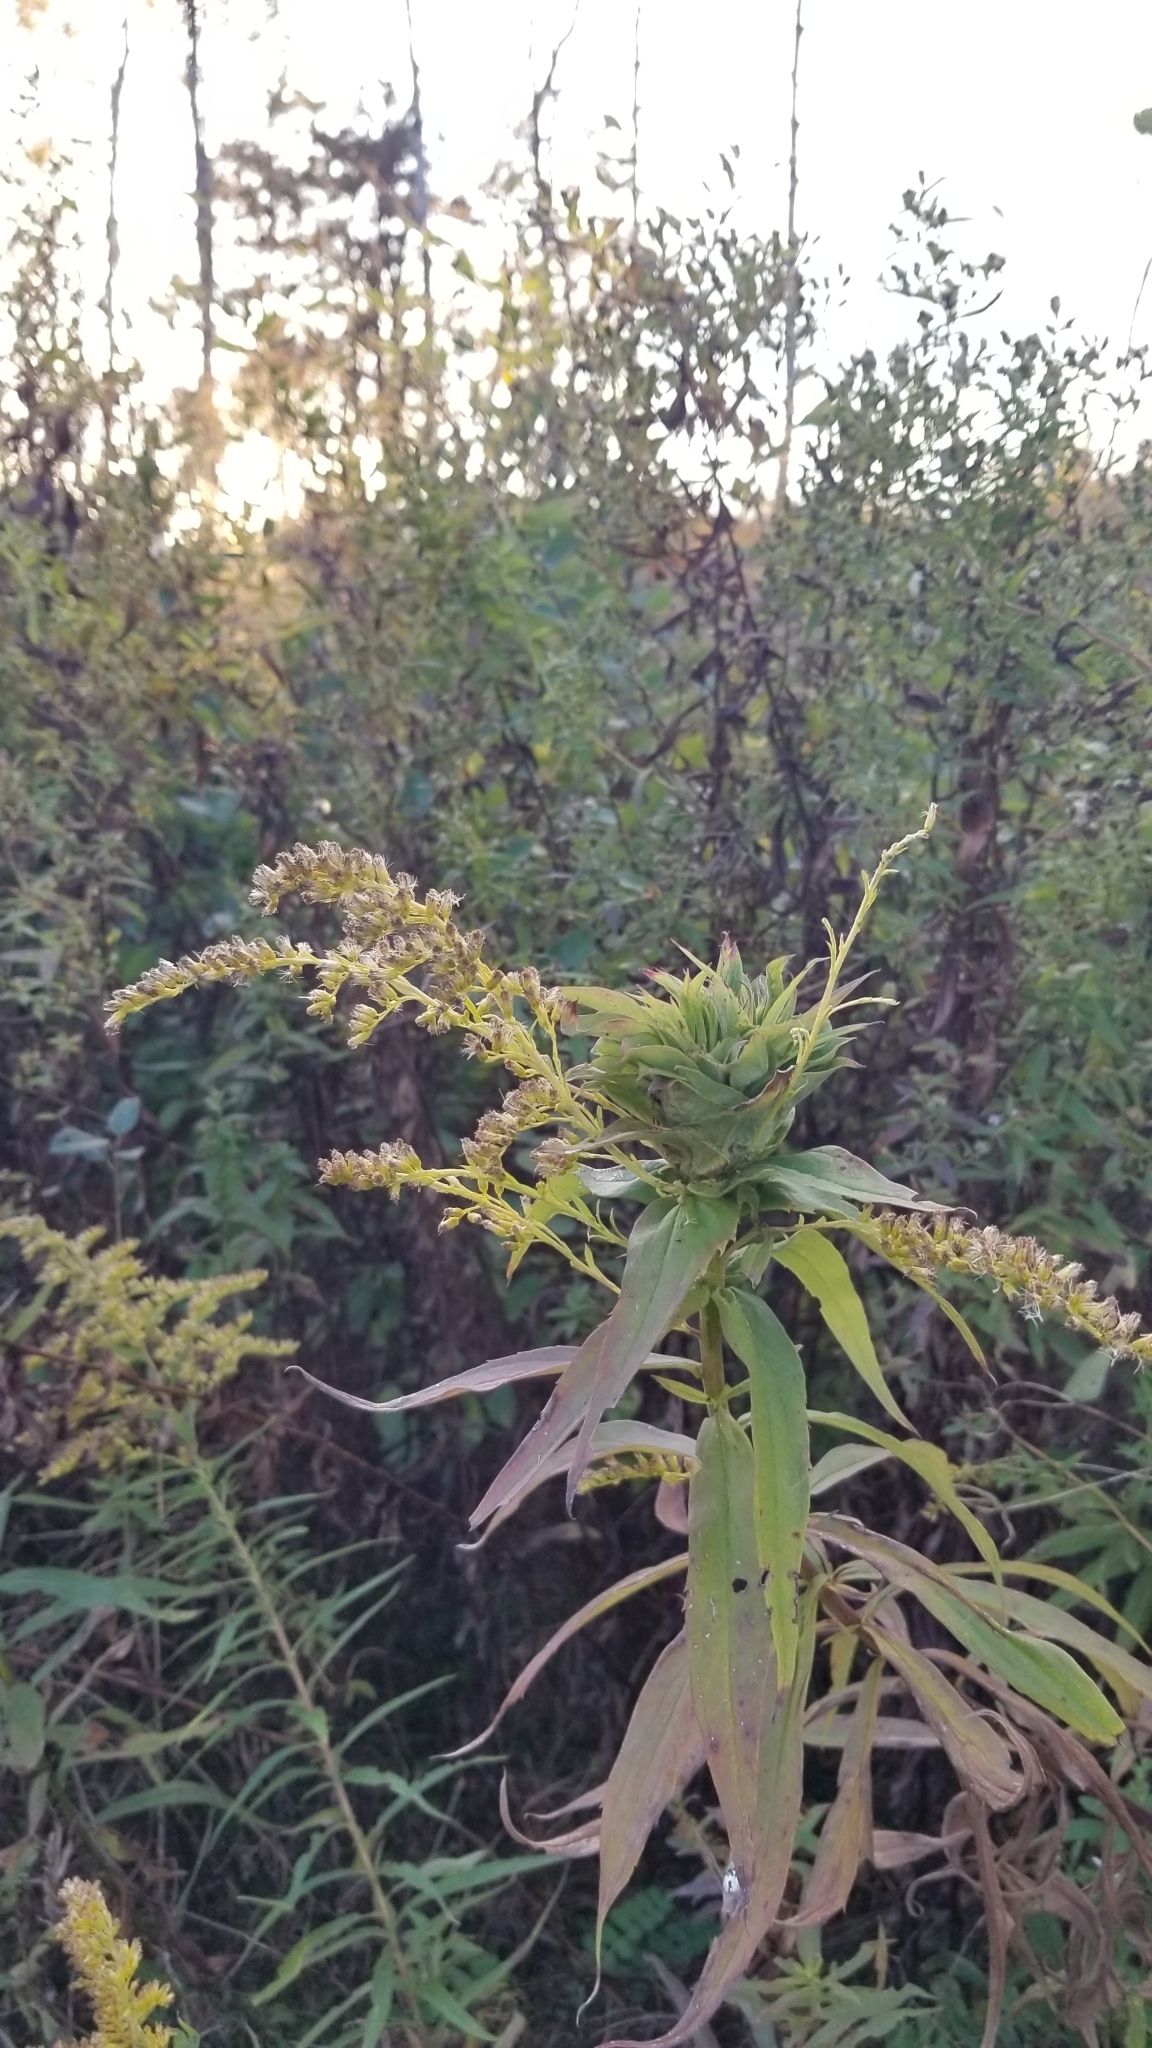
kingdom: Animalia
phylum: Arthropoda
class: Insecta
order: Diptera
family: Cecidomyiidae
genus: Rhopalomyia
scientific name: Rhopalomyia solidaginis
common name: Goldenrod bunch gall midge
